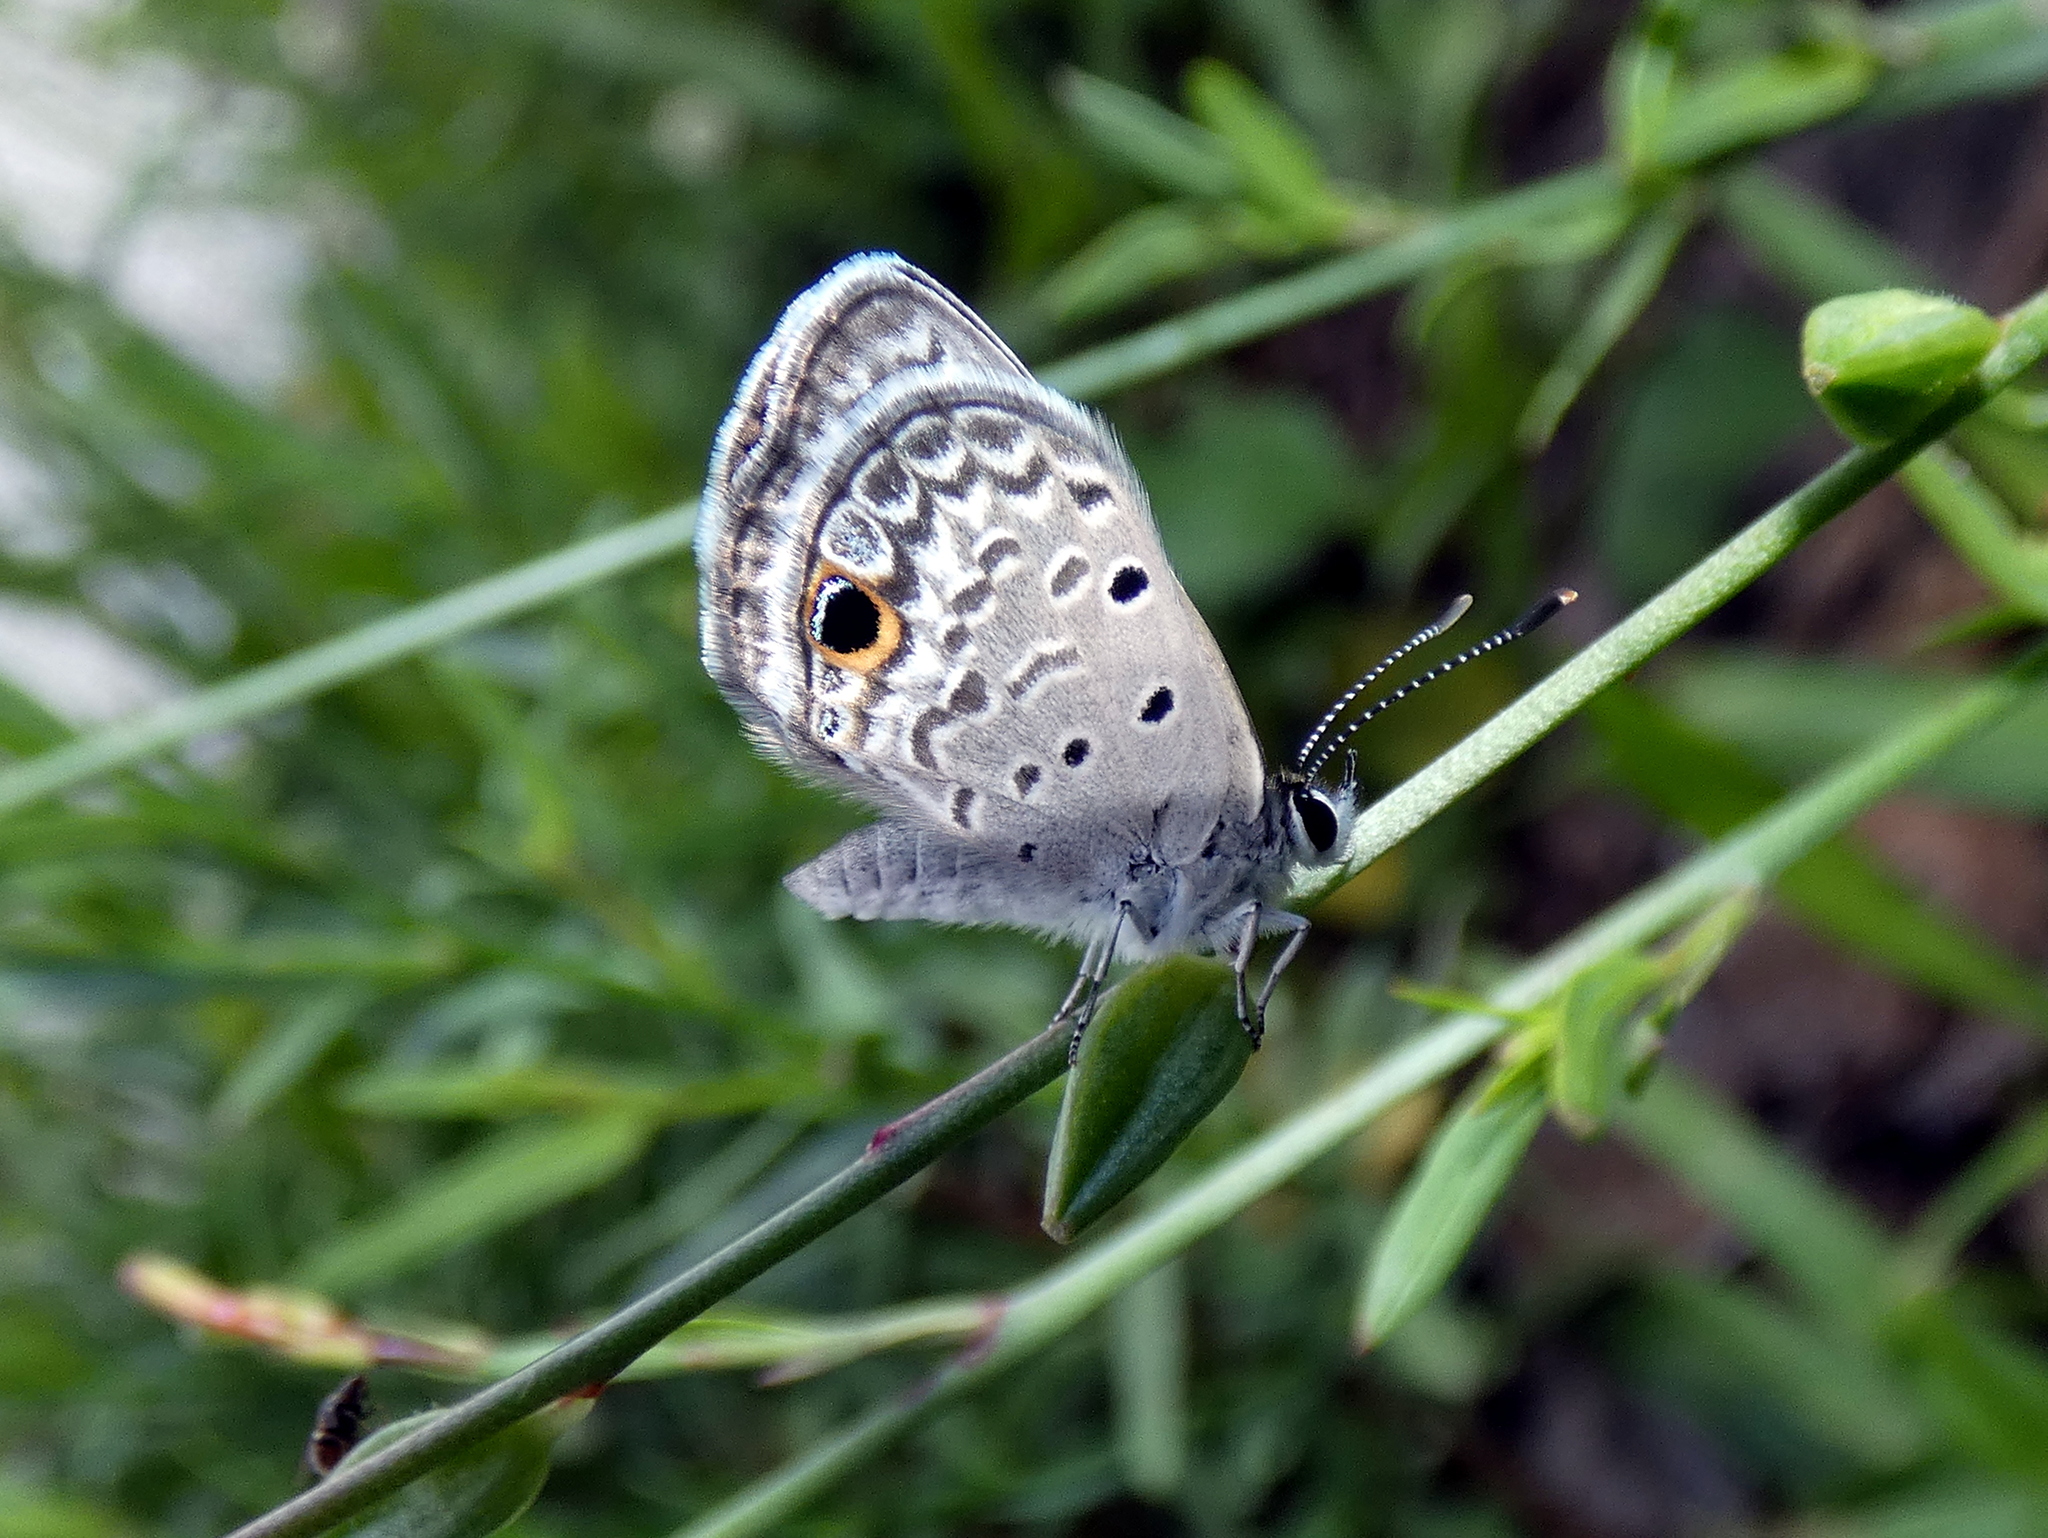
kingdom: Animalia
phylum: Arthropoda
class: Insecta
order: Lepidoptera
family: Lycaenidae
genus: Hemiargus
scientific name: Hemiargus ceraunus
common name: Ceraunus blue
